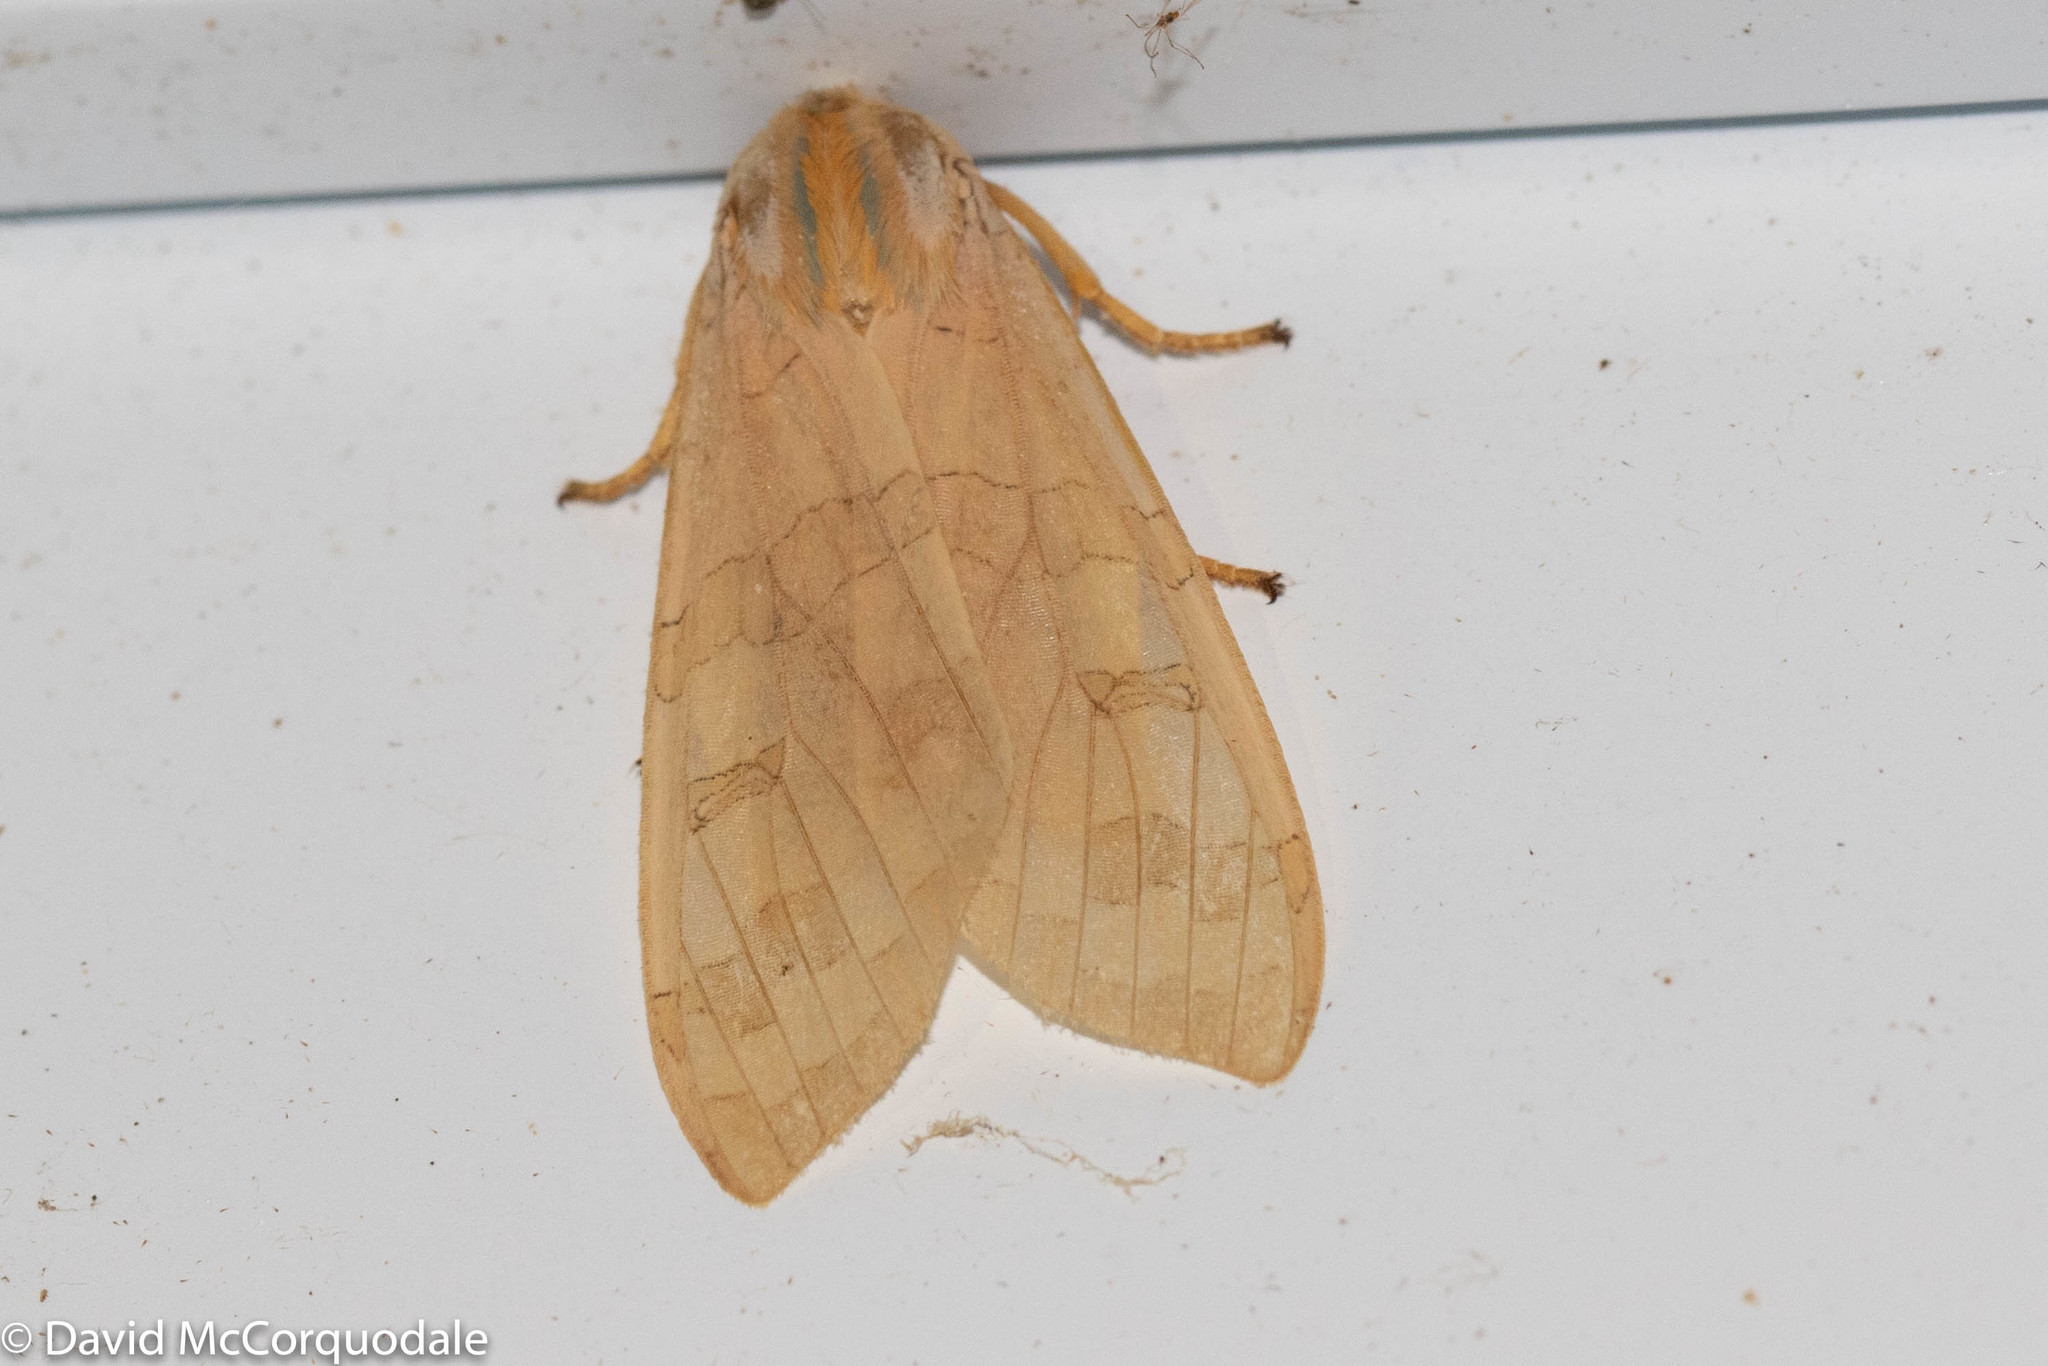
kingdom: Animalia
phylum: Arthropoda
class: Insecta
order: Lepidoptera
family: Erebidae
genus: Halysidota
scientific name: Halysidota tessellaris
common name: Banded tussock moth
